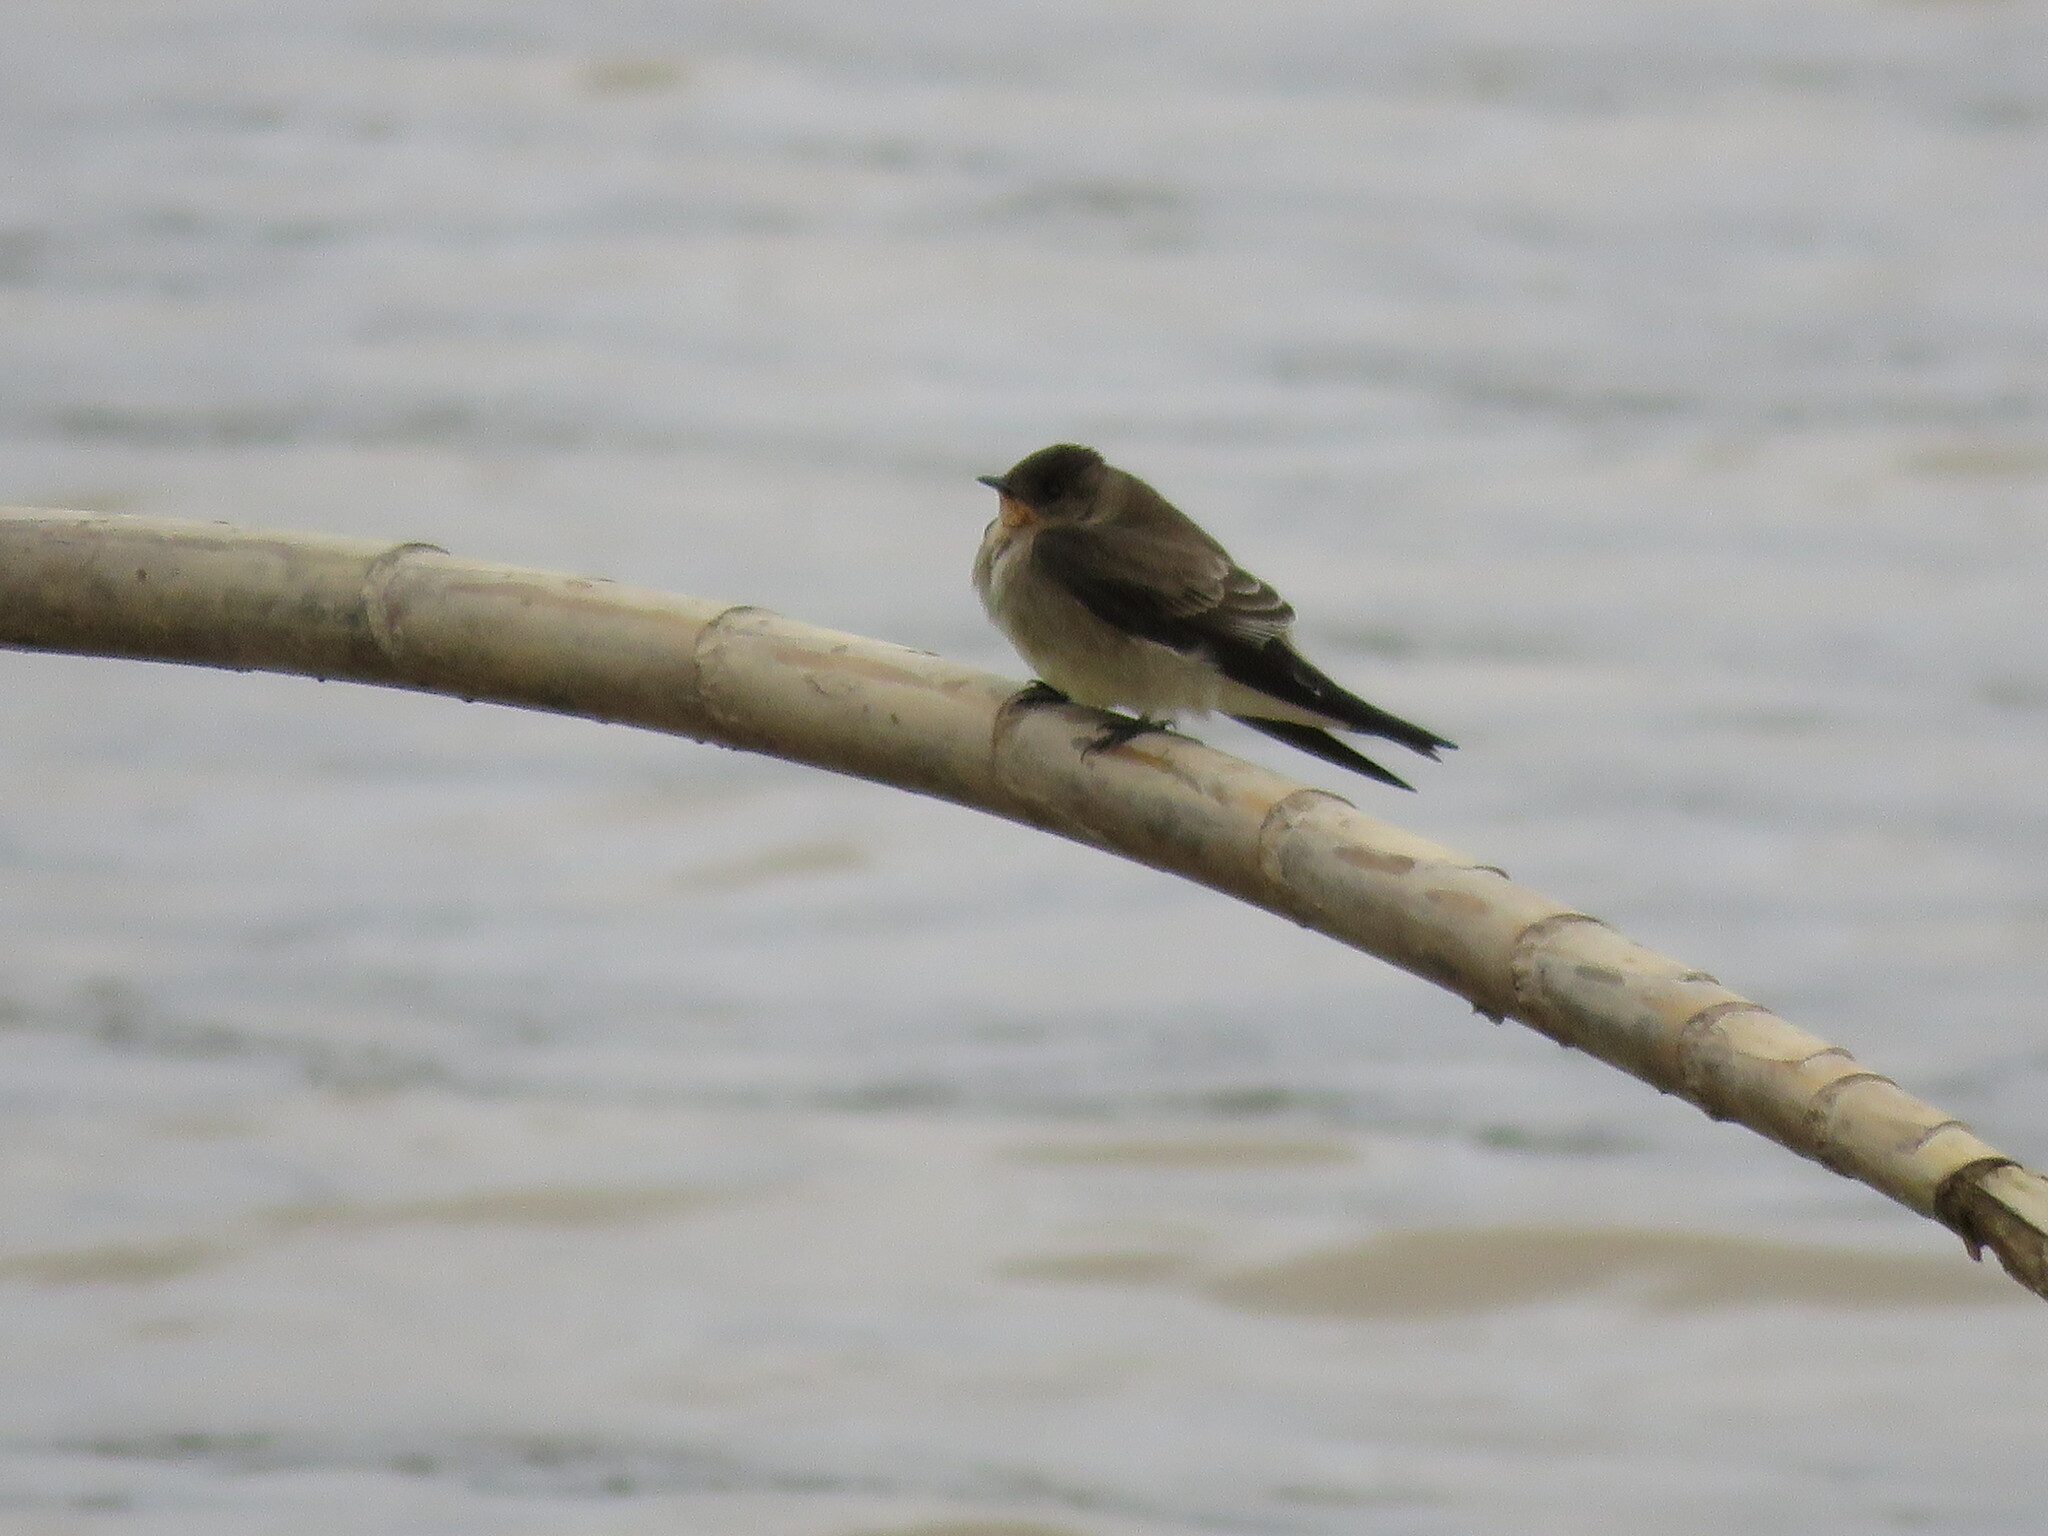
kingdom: Animalia
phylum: Chordata
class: Aves
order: Passeriformes
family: Hirundinidae
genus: Stelgidopteryx
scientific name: Stelgidopteryx ruficollis
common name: Southern rough-winged swallow
